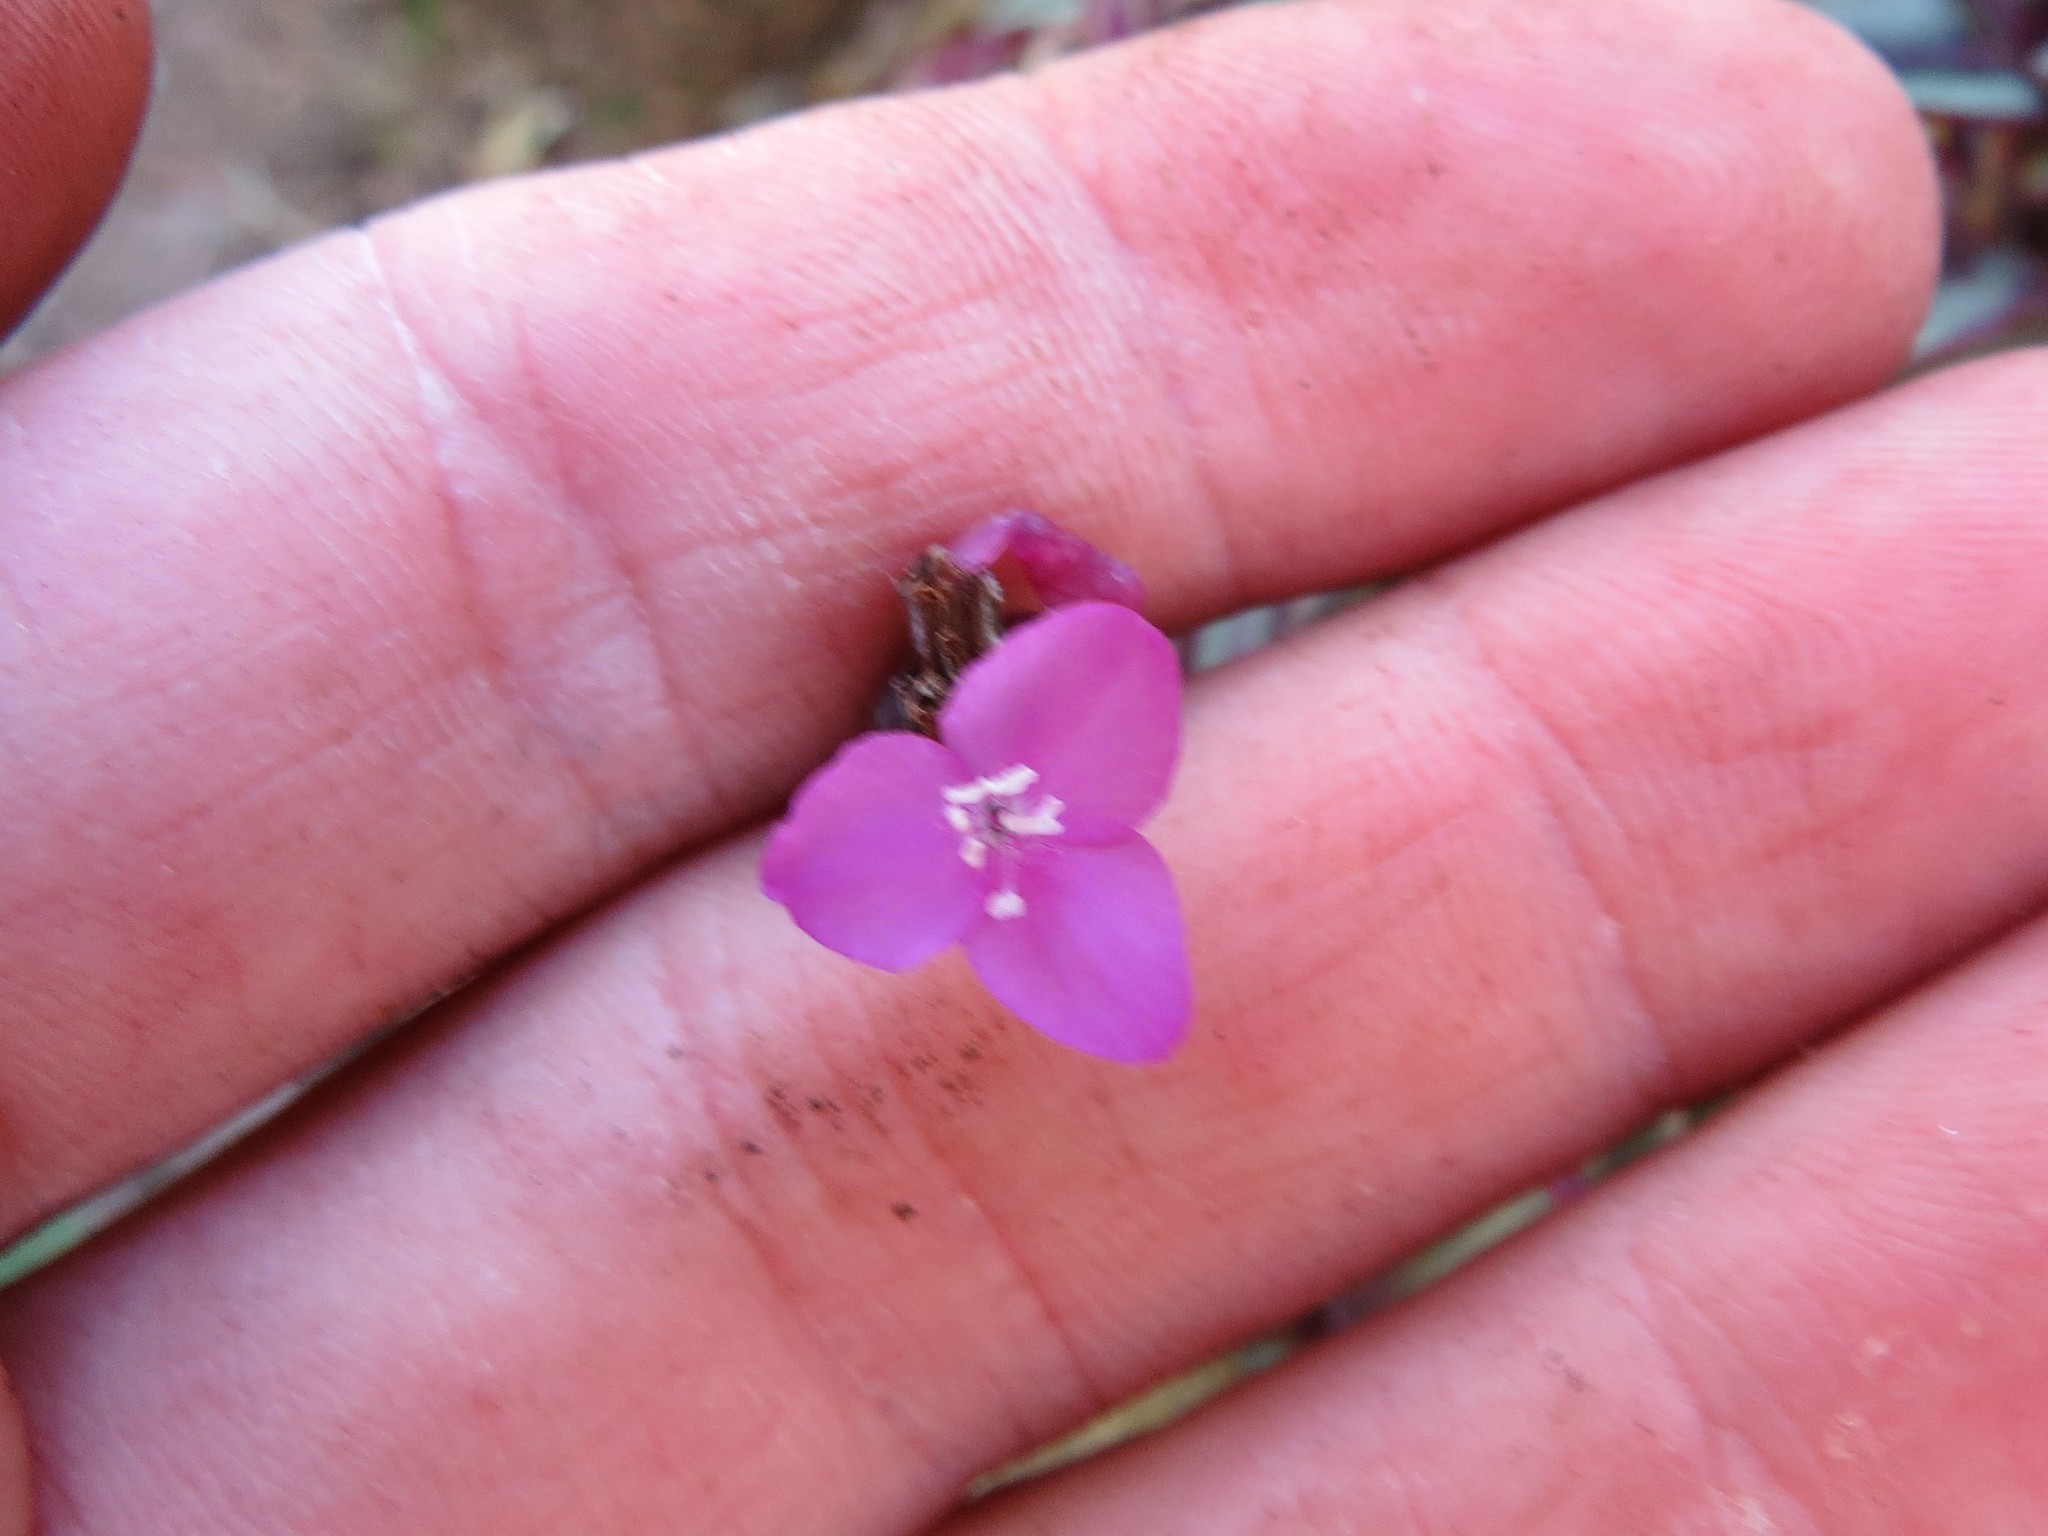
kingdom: Plantae
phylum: Tracheophyta
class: Liliopsida
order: Commelinales
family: Commelinaceae
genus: Tradescantia
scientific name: Tradescantia zebrina
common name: Inchplant
